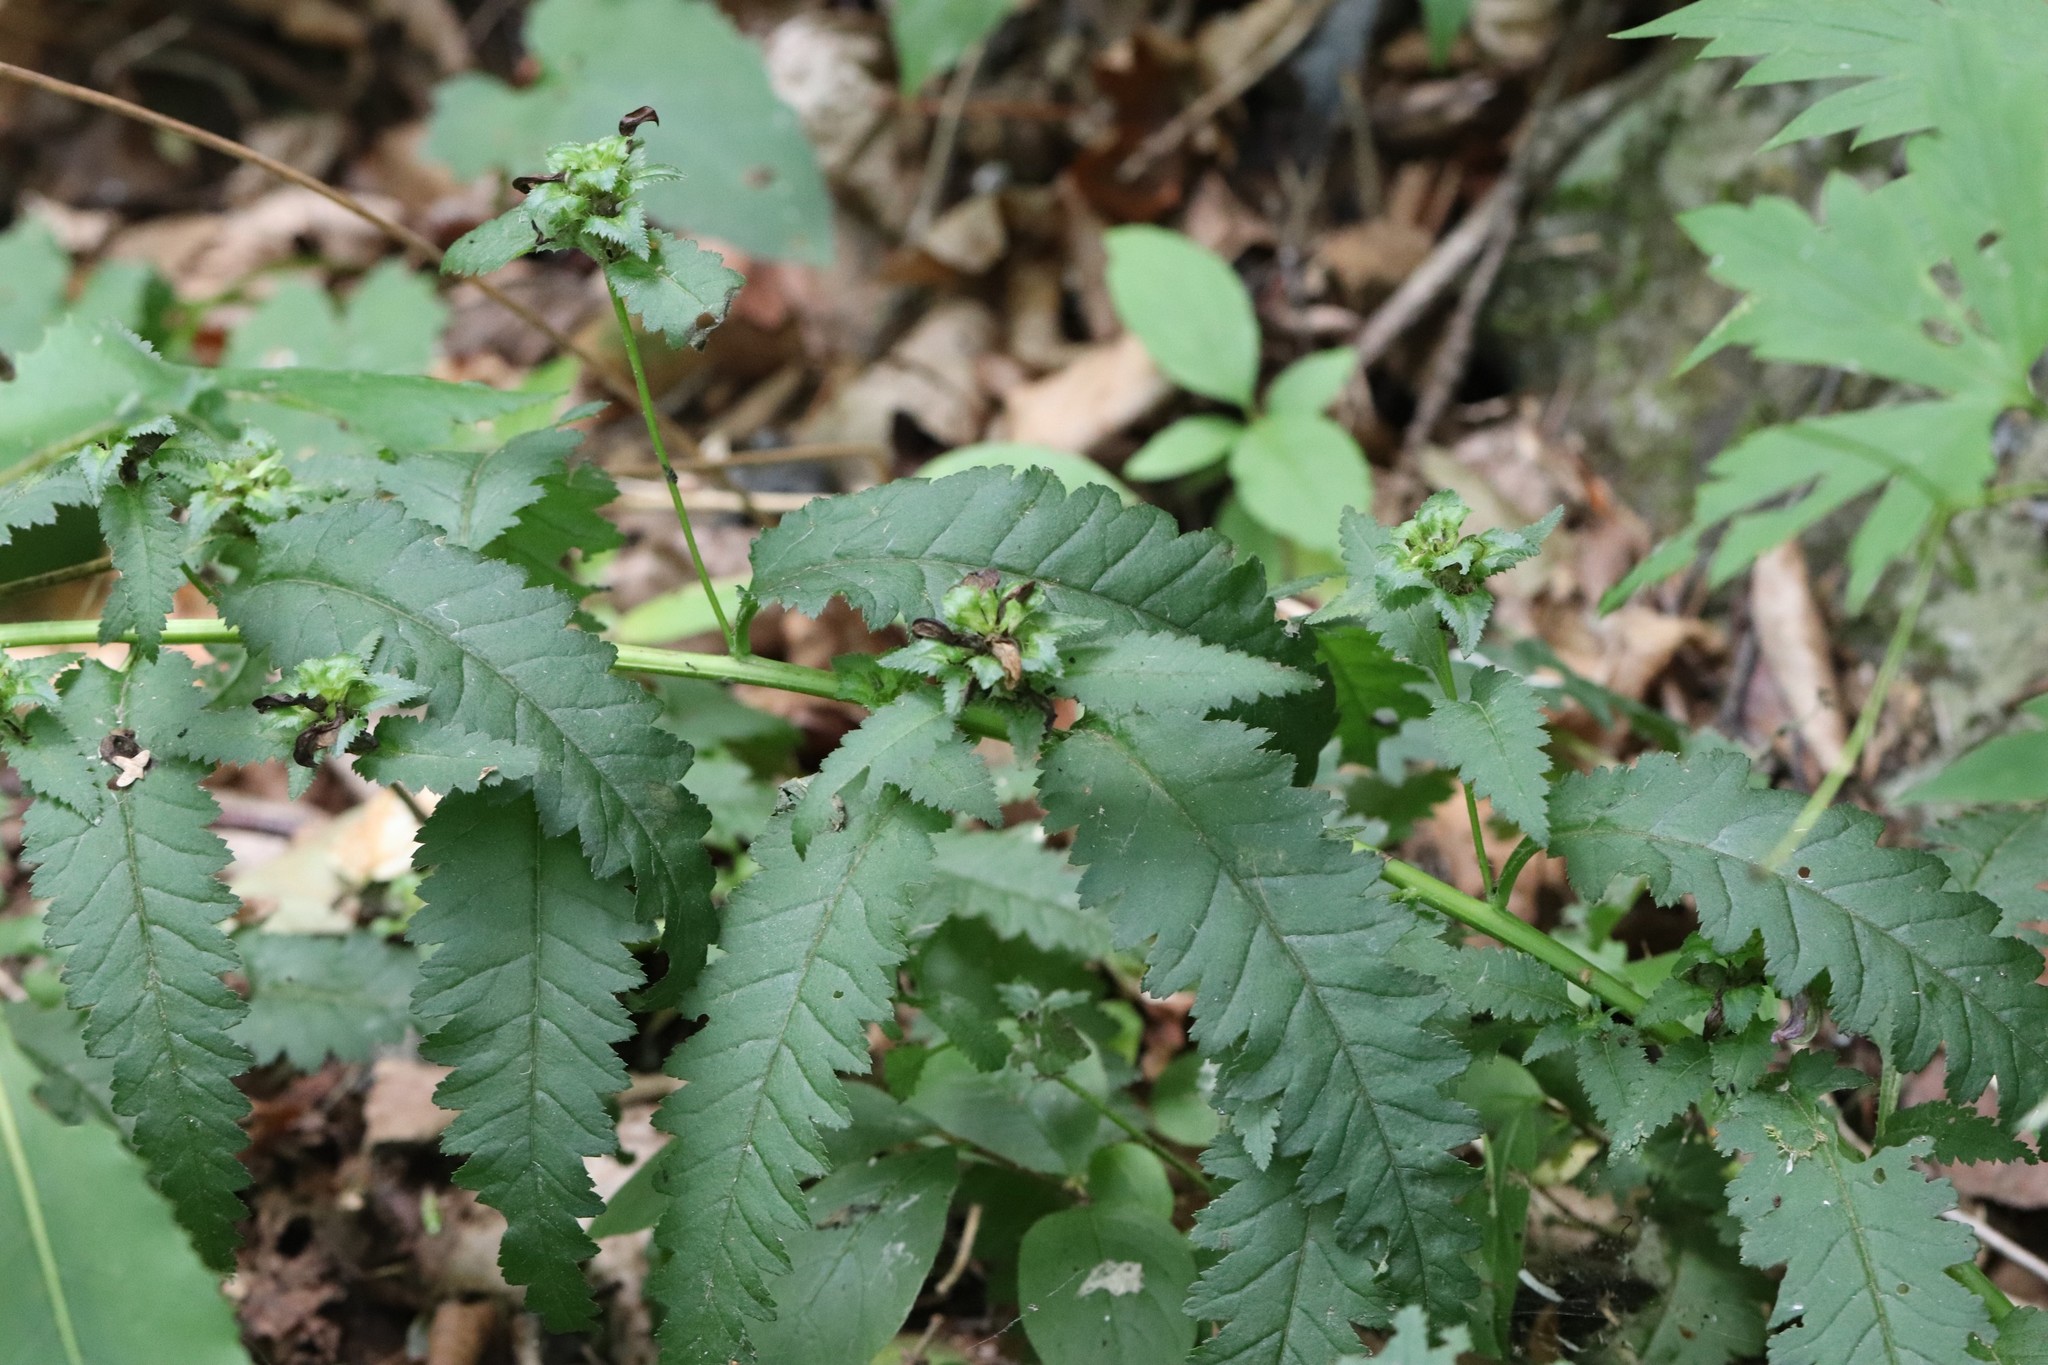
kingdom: Plantae
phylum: Tracheophyta
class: Magnoliopsida
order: Lamiales
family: Orobanchaceae
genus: Pedicularis
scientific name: Pedicularis resupinata
